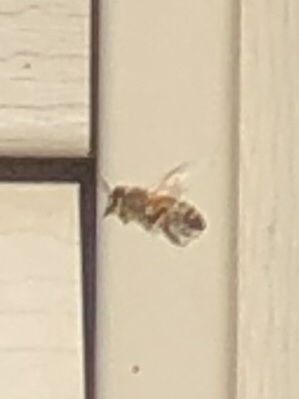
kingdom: Animalia
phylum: Arthropoda
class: Insecta
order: Hymenoptera
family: Apidae
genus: Apis
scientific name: Apis mellifera
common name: Honey bee
